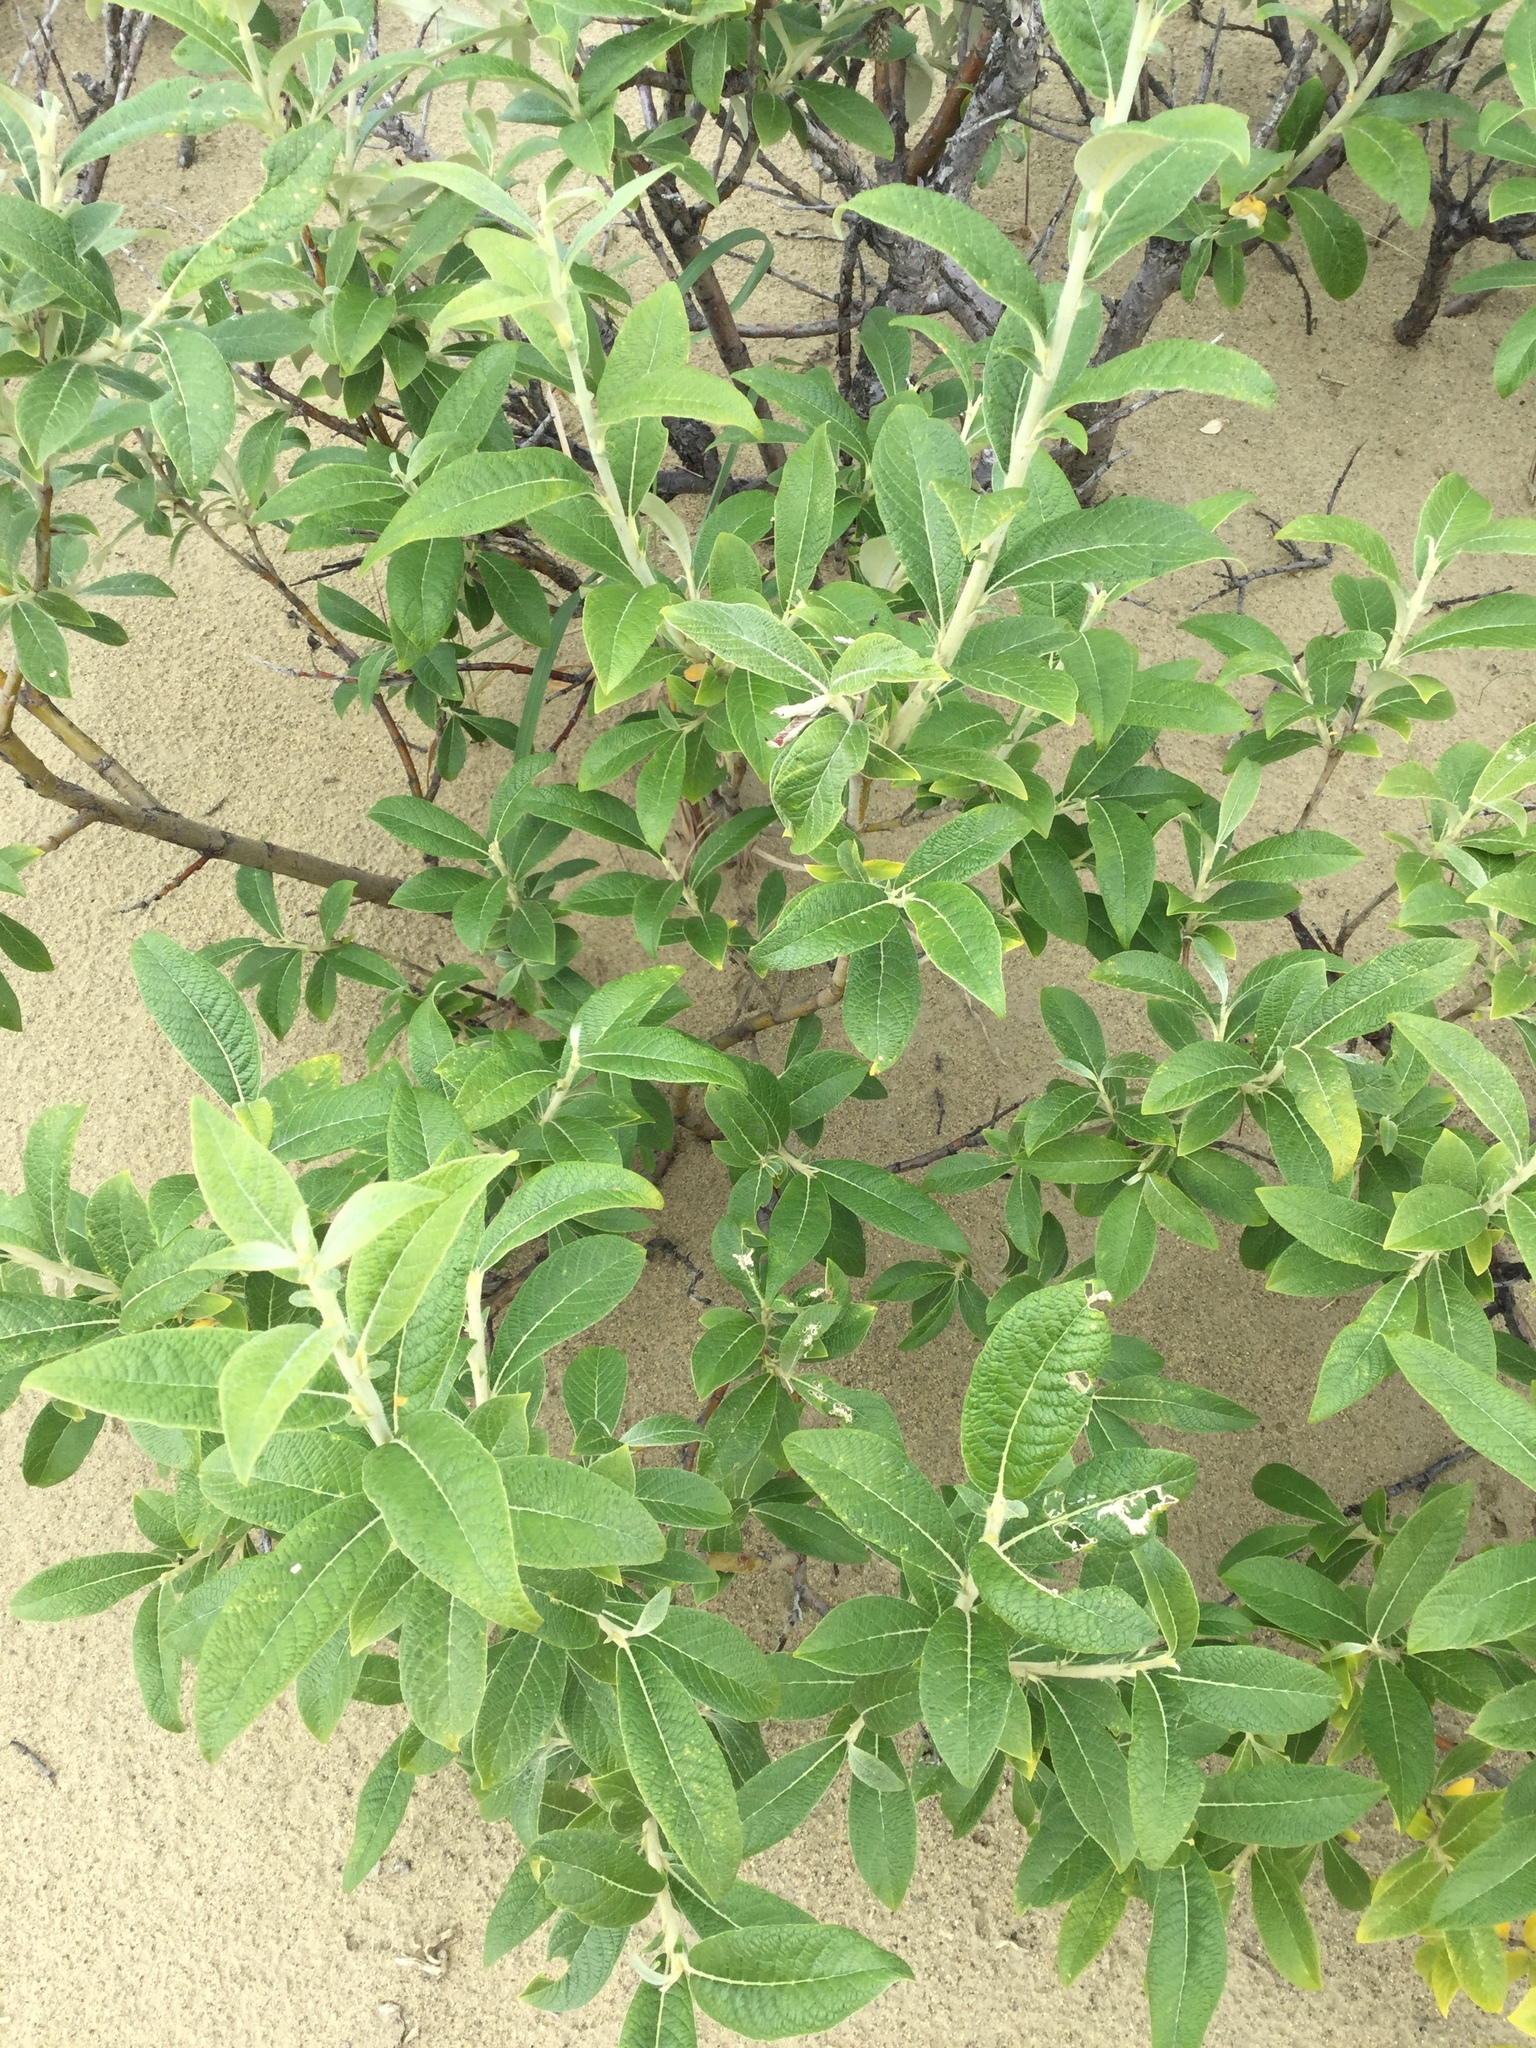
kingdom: Plantae
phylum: Tracheophyta
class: Magnoliopsida
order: Malpighiales
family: Salicaceae
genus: Salix
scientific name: Salix alaxensis
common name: Feltleaf willow
